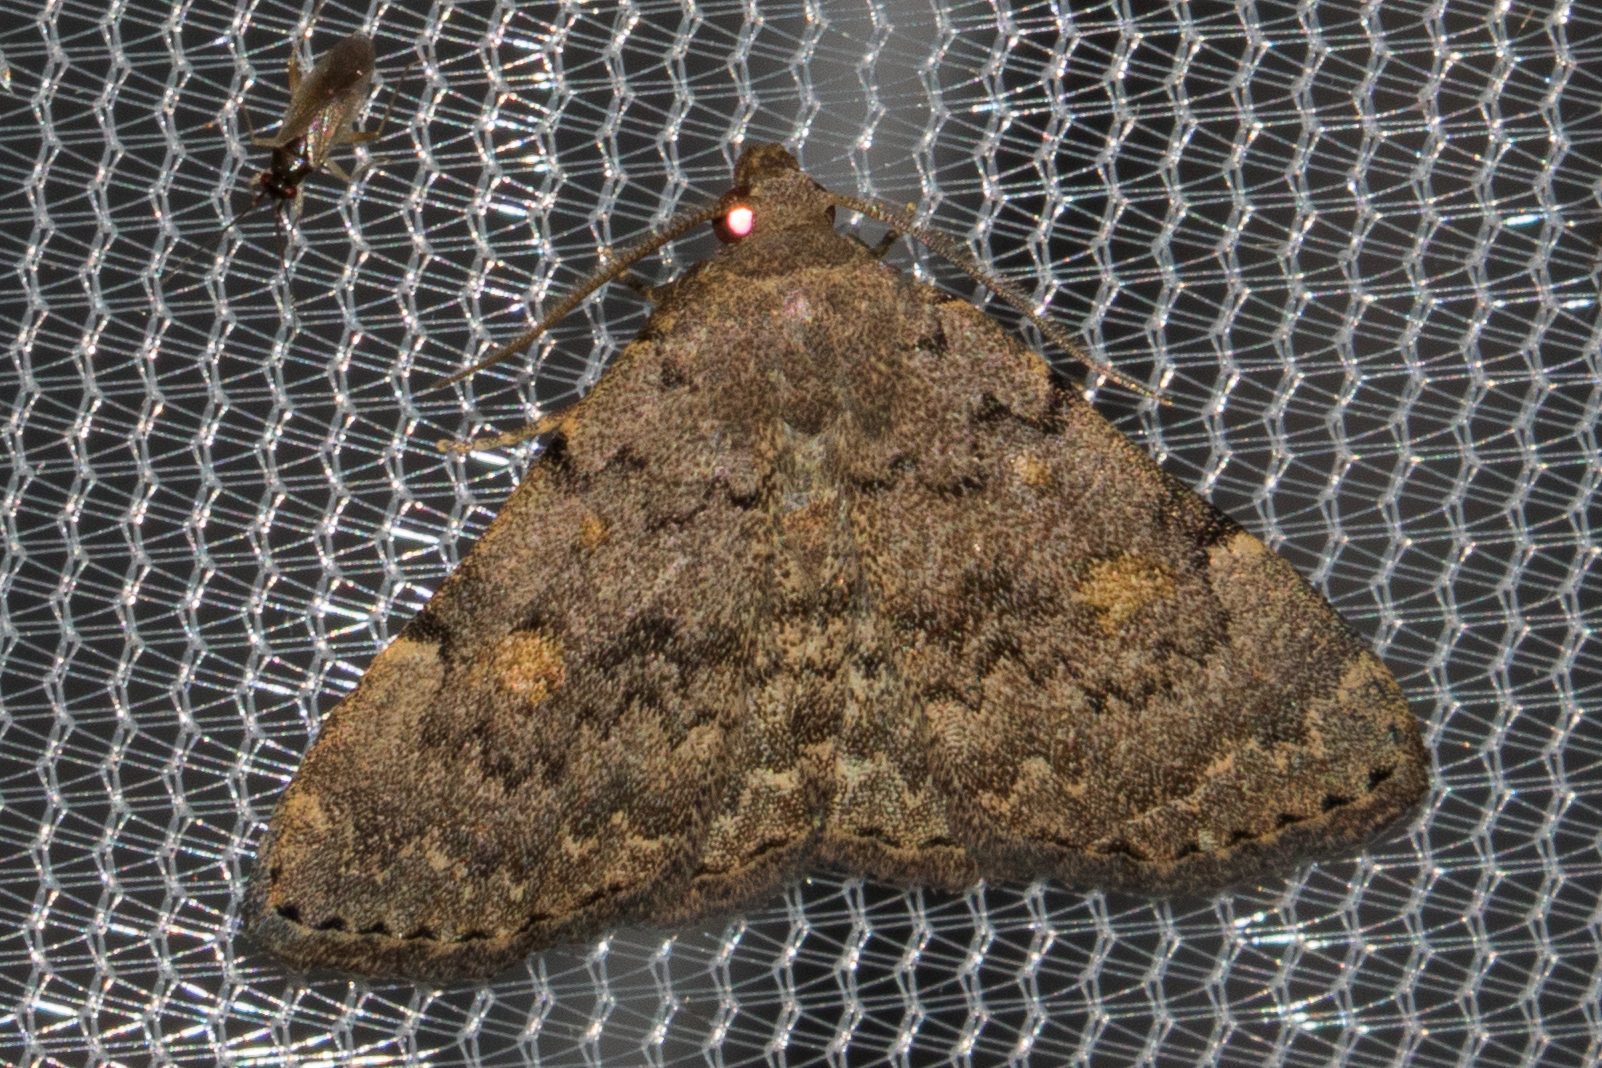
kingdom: Animalia
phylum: Arthropoda
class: Insecta
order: Lepidoptera
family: Erebidae
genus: Idia
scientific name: Idia aemula
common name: Common idia moth
